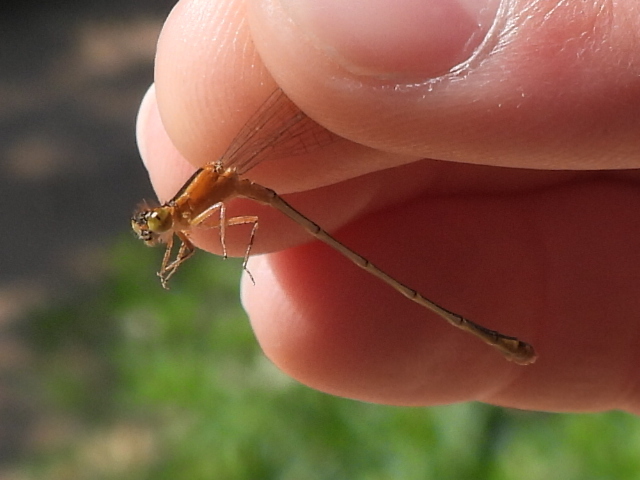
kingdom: Animalia
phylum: Arthropoda
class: Insecta
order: Odonata
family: Coenagrionidae
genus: Ischnura
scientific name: Ischnura senegalensis
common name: Tropical bluetail
